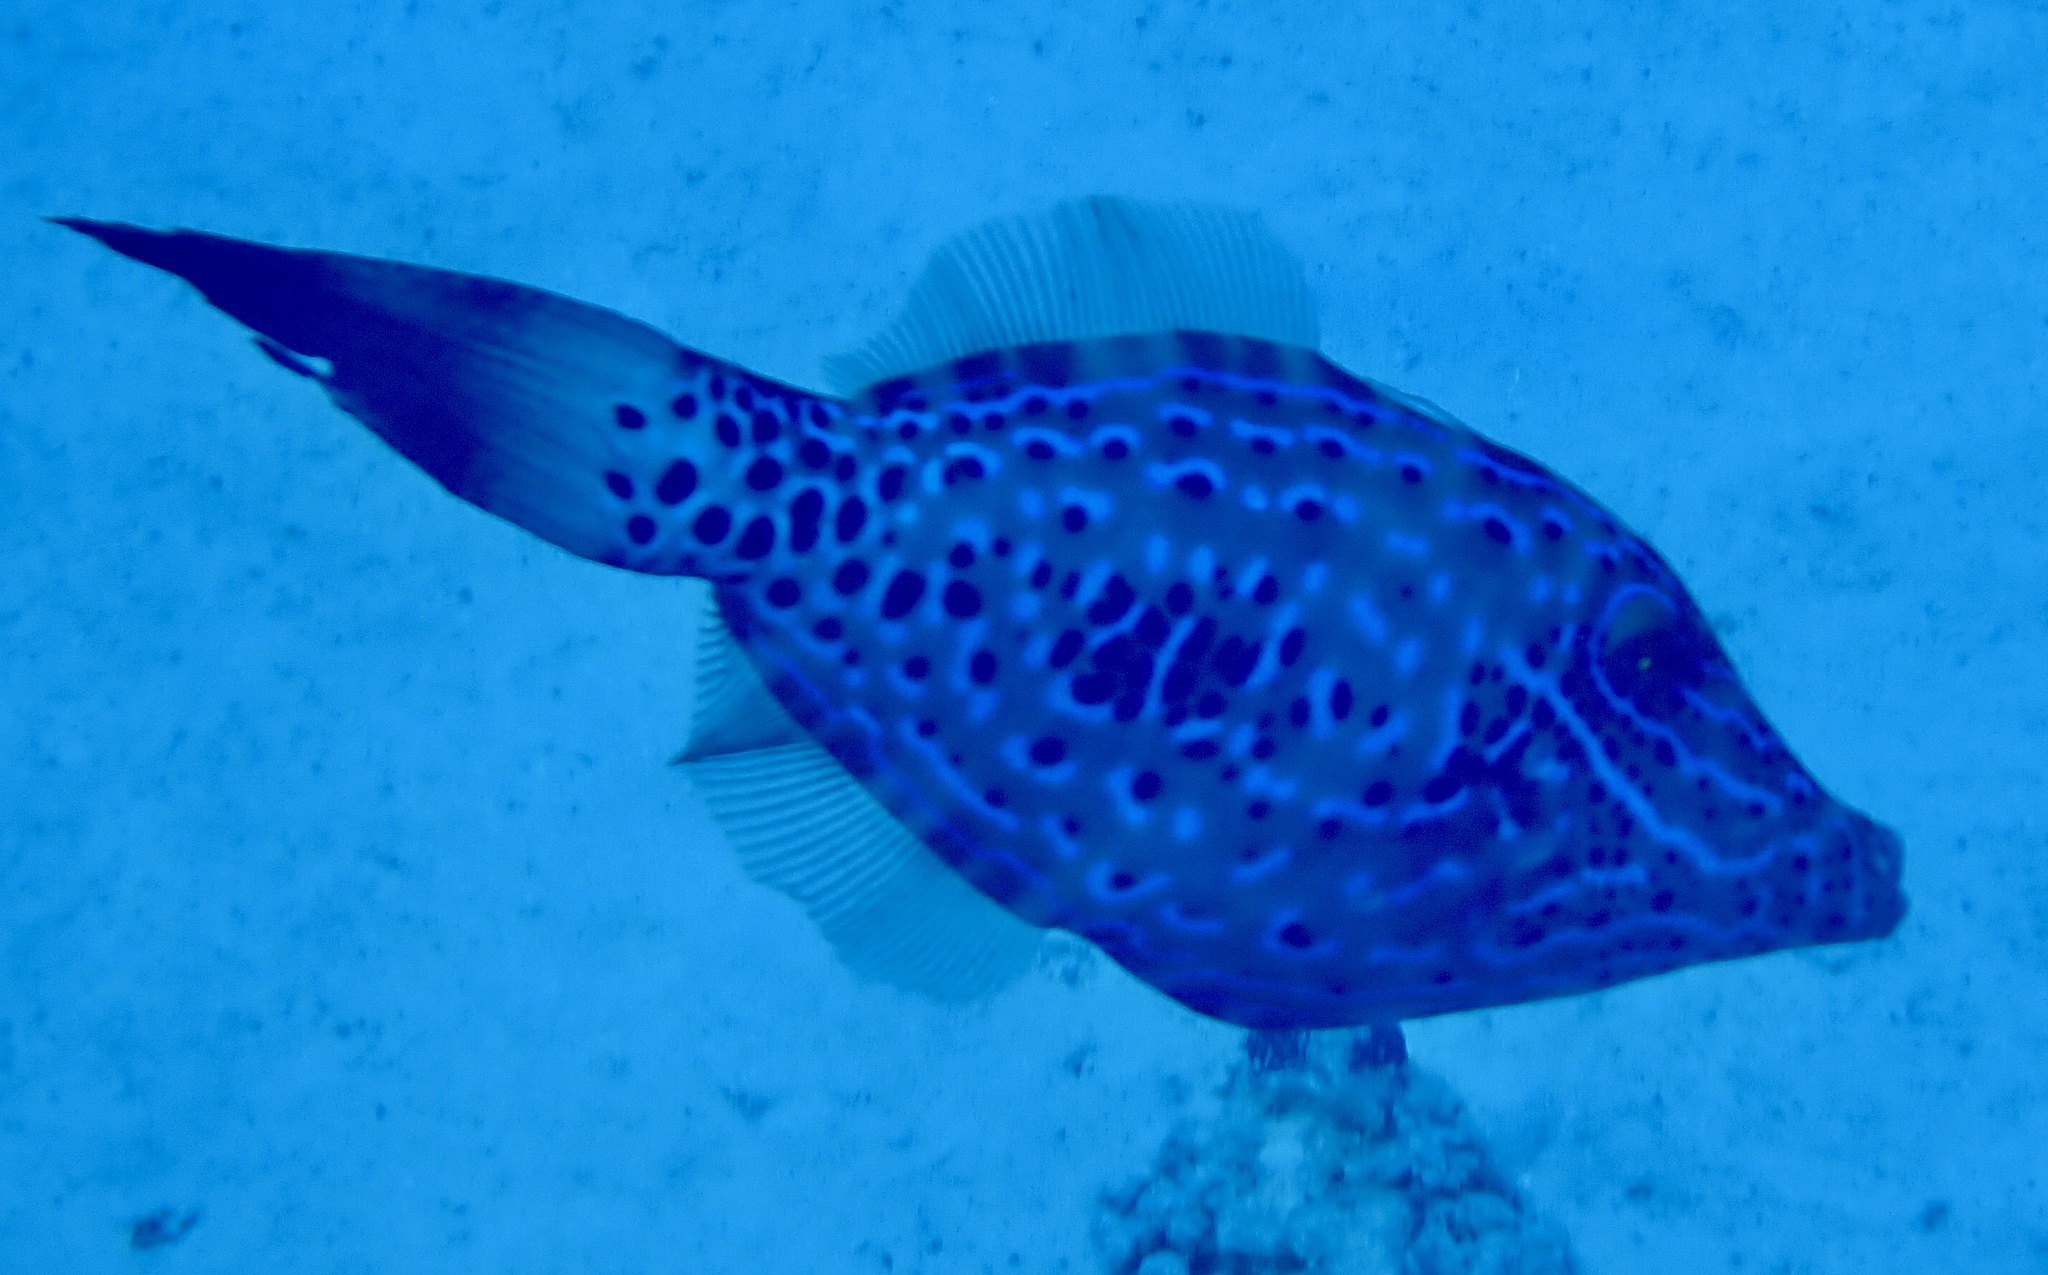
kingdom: Animalia
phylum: Chordata
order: Tetraodontiformes
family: Monacanthidae
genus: Aluterus
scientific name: Aluterus scriptus
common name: Scribbled leatherjacket filefish
